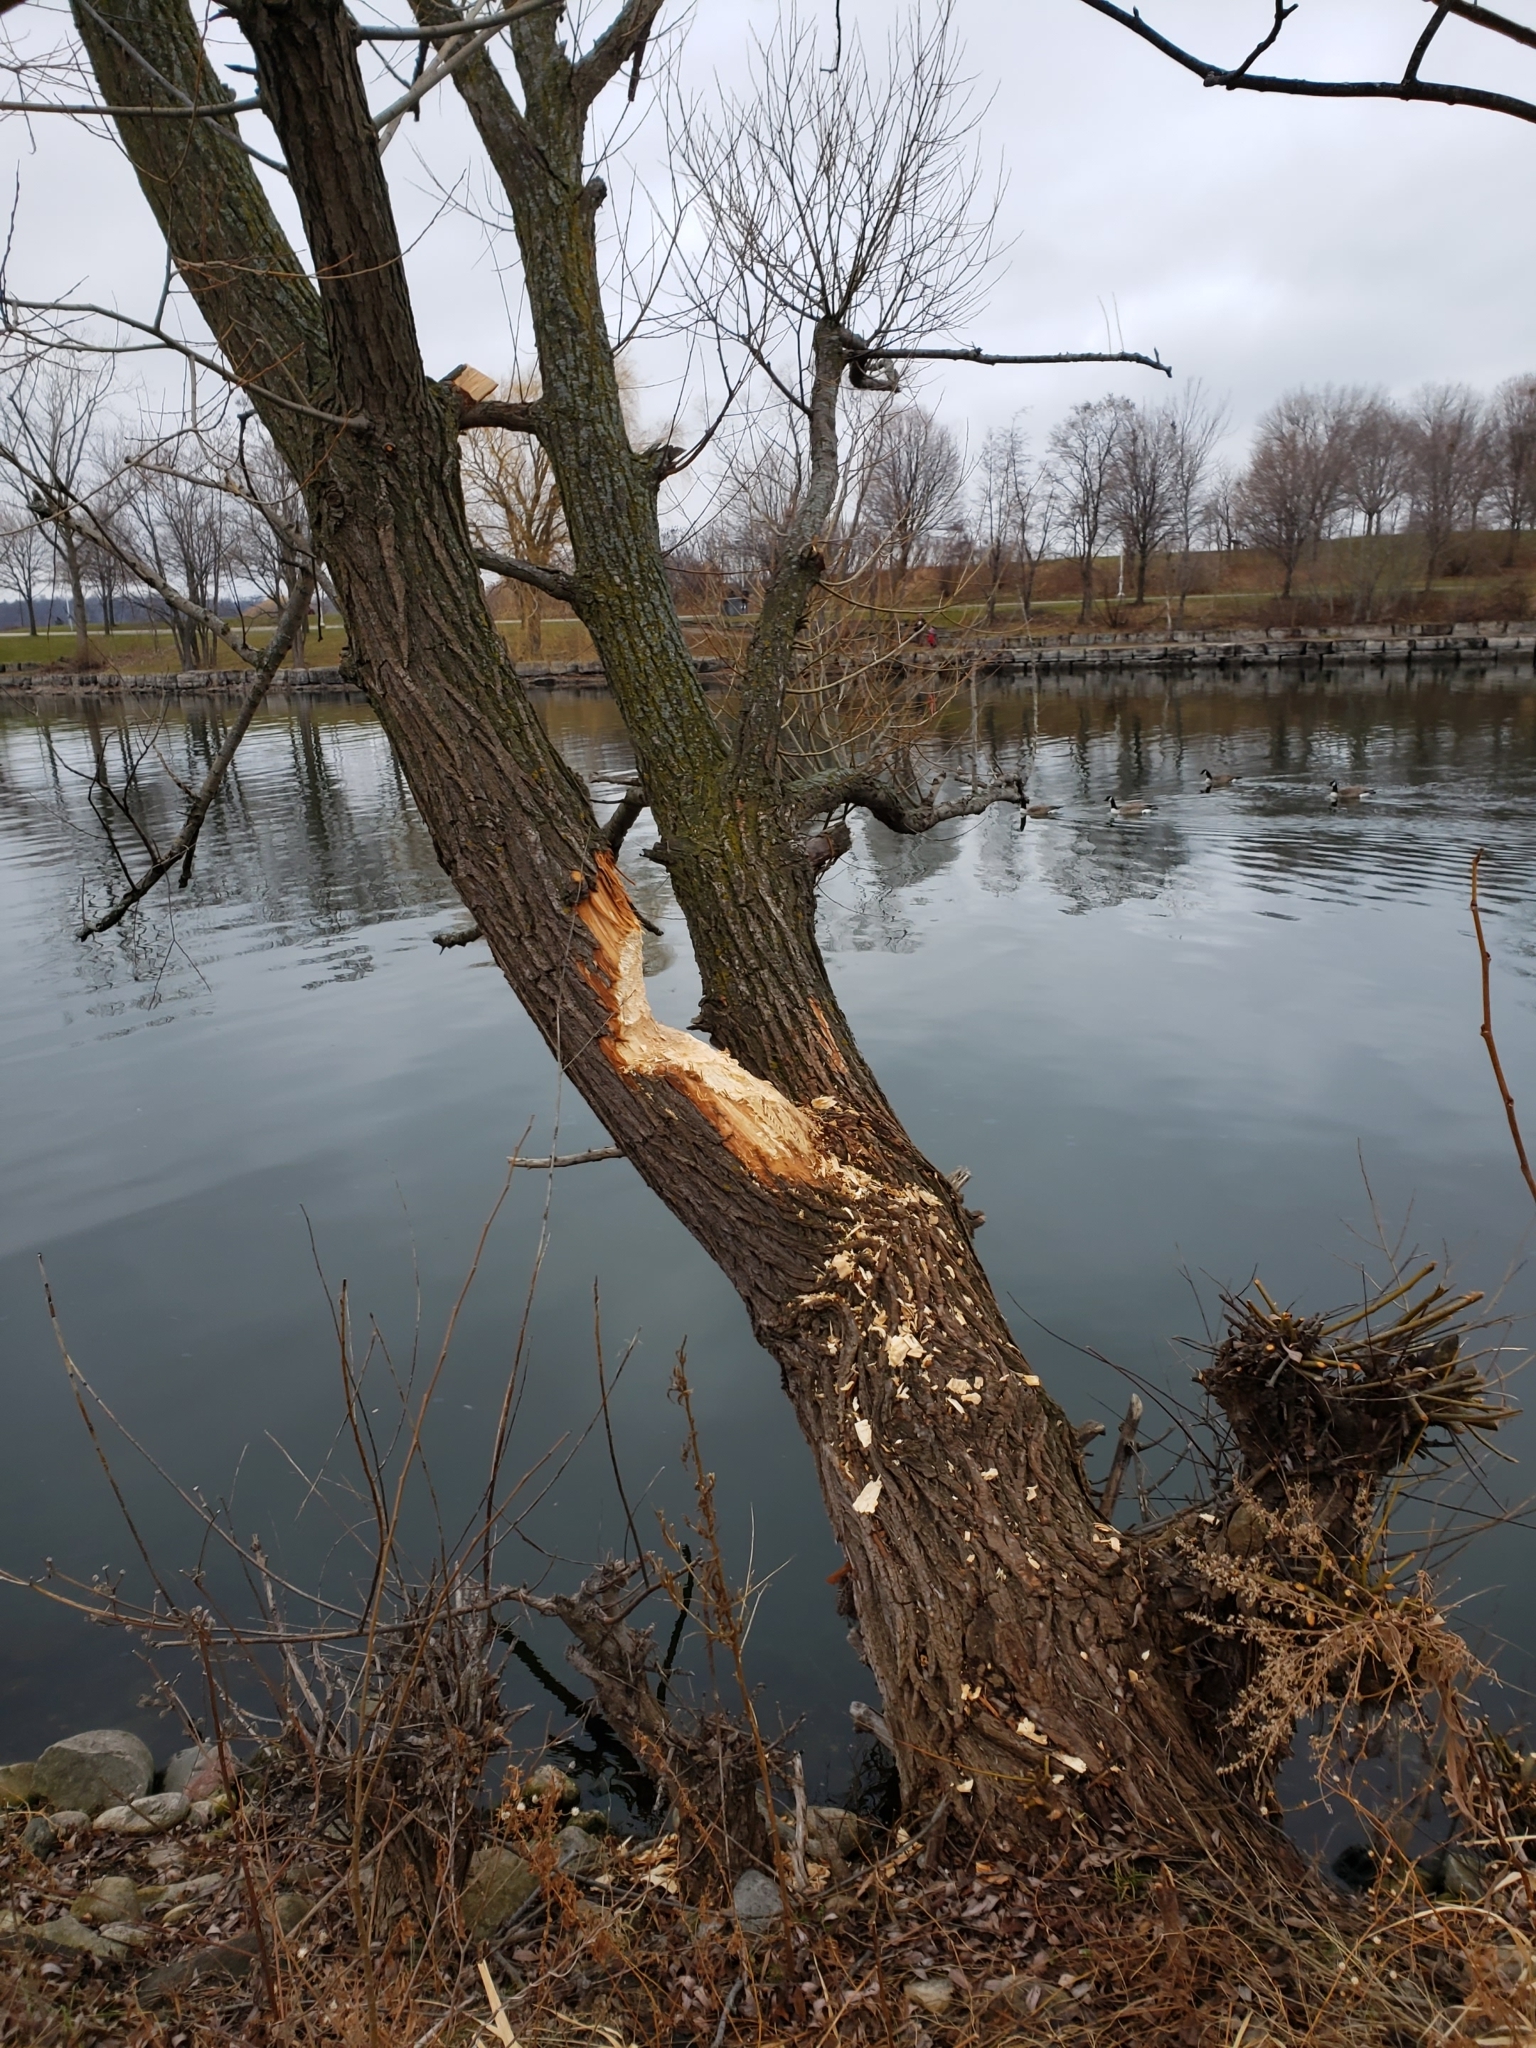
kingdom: Animalia
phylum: Chordata
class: Mammalia
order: Rodentia
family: Castoridae
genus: Castor
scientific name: Castor canadensis
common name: American beaver
